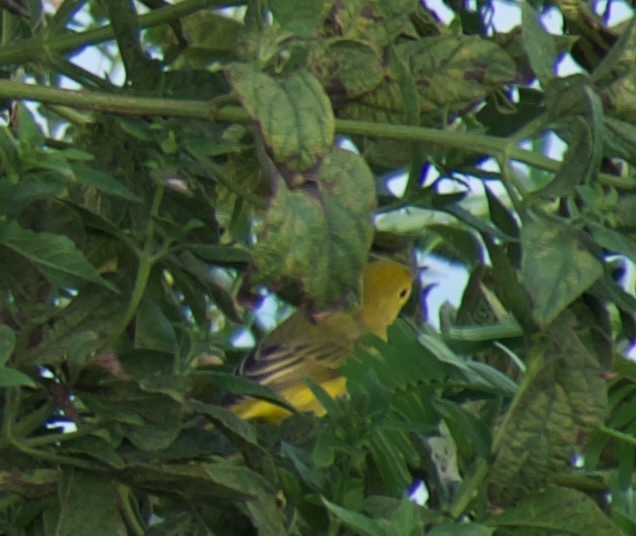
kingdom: Animalia
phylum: Chordata
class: Aves
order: Passeriformes
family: Parulidae
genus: Setophaga
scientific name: Setophaga petechia
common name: Yellow warbler
